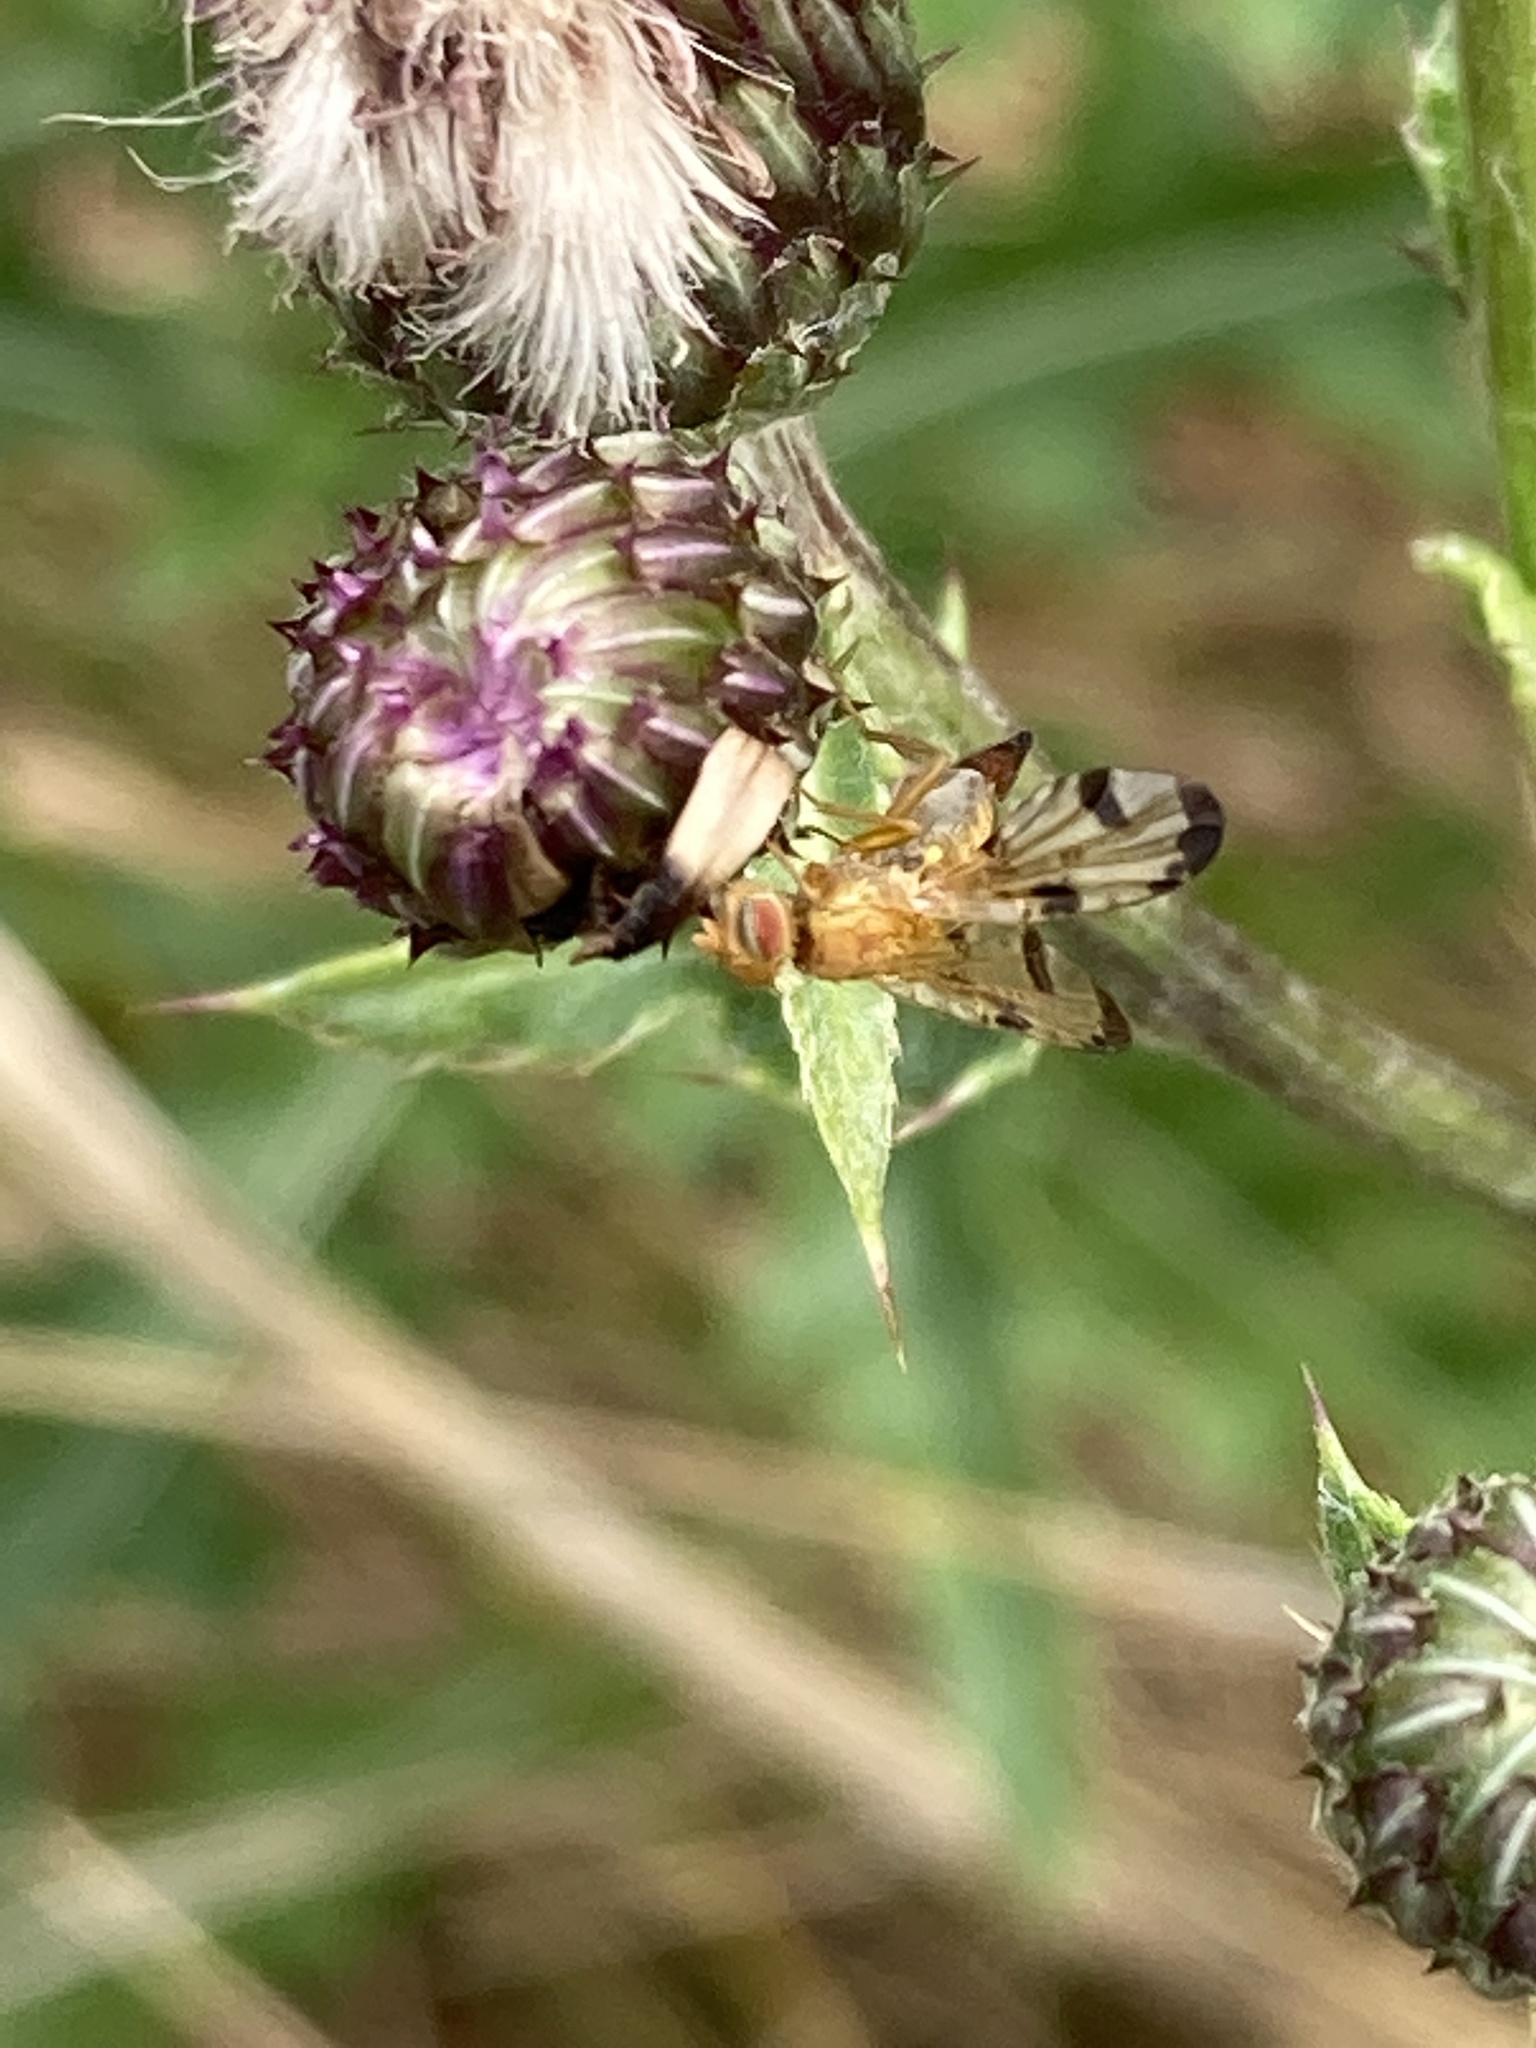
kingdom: Animalia
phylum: Arthropoda
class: Insecta
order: Diptera
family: Tephritidae
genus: Xyphosia
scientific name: Xyphosia miliaria
